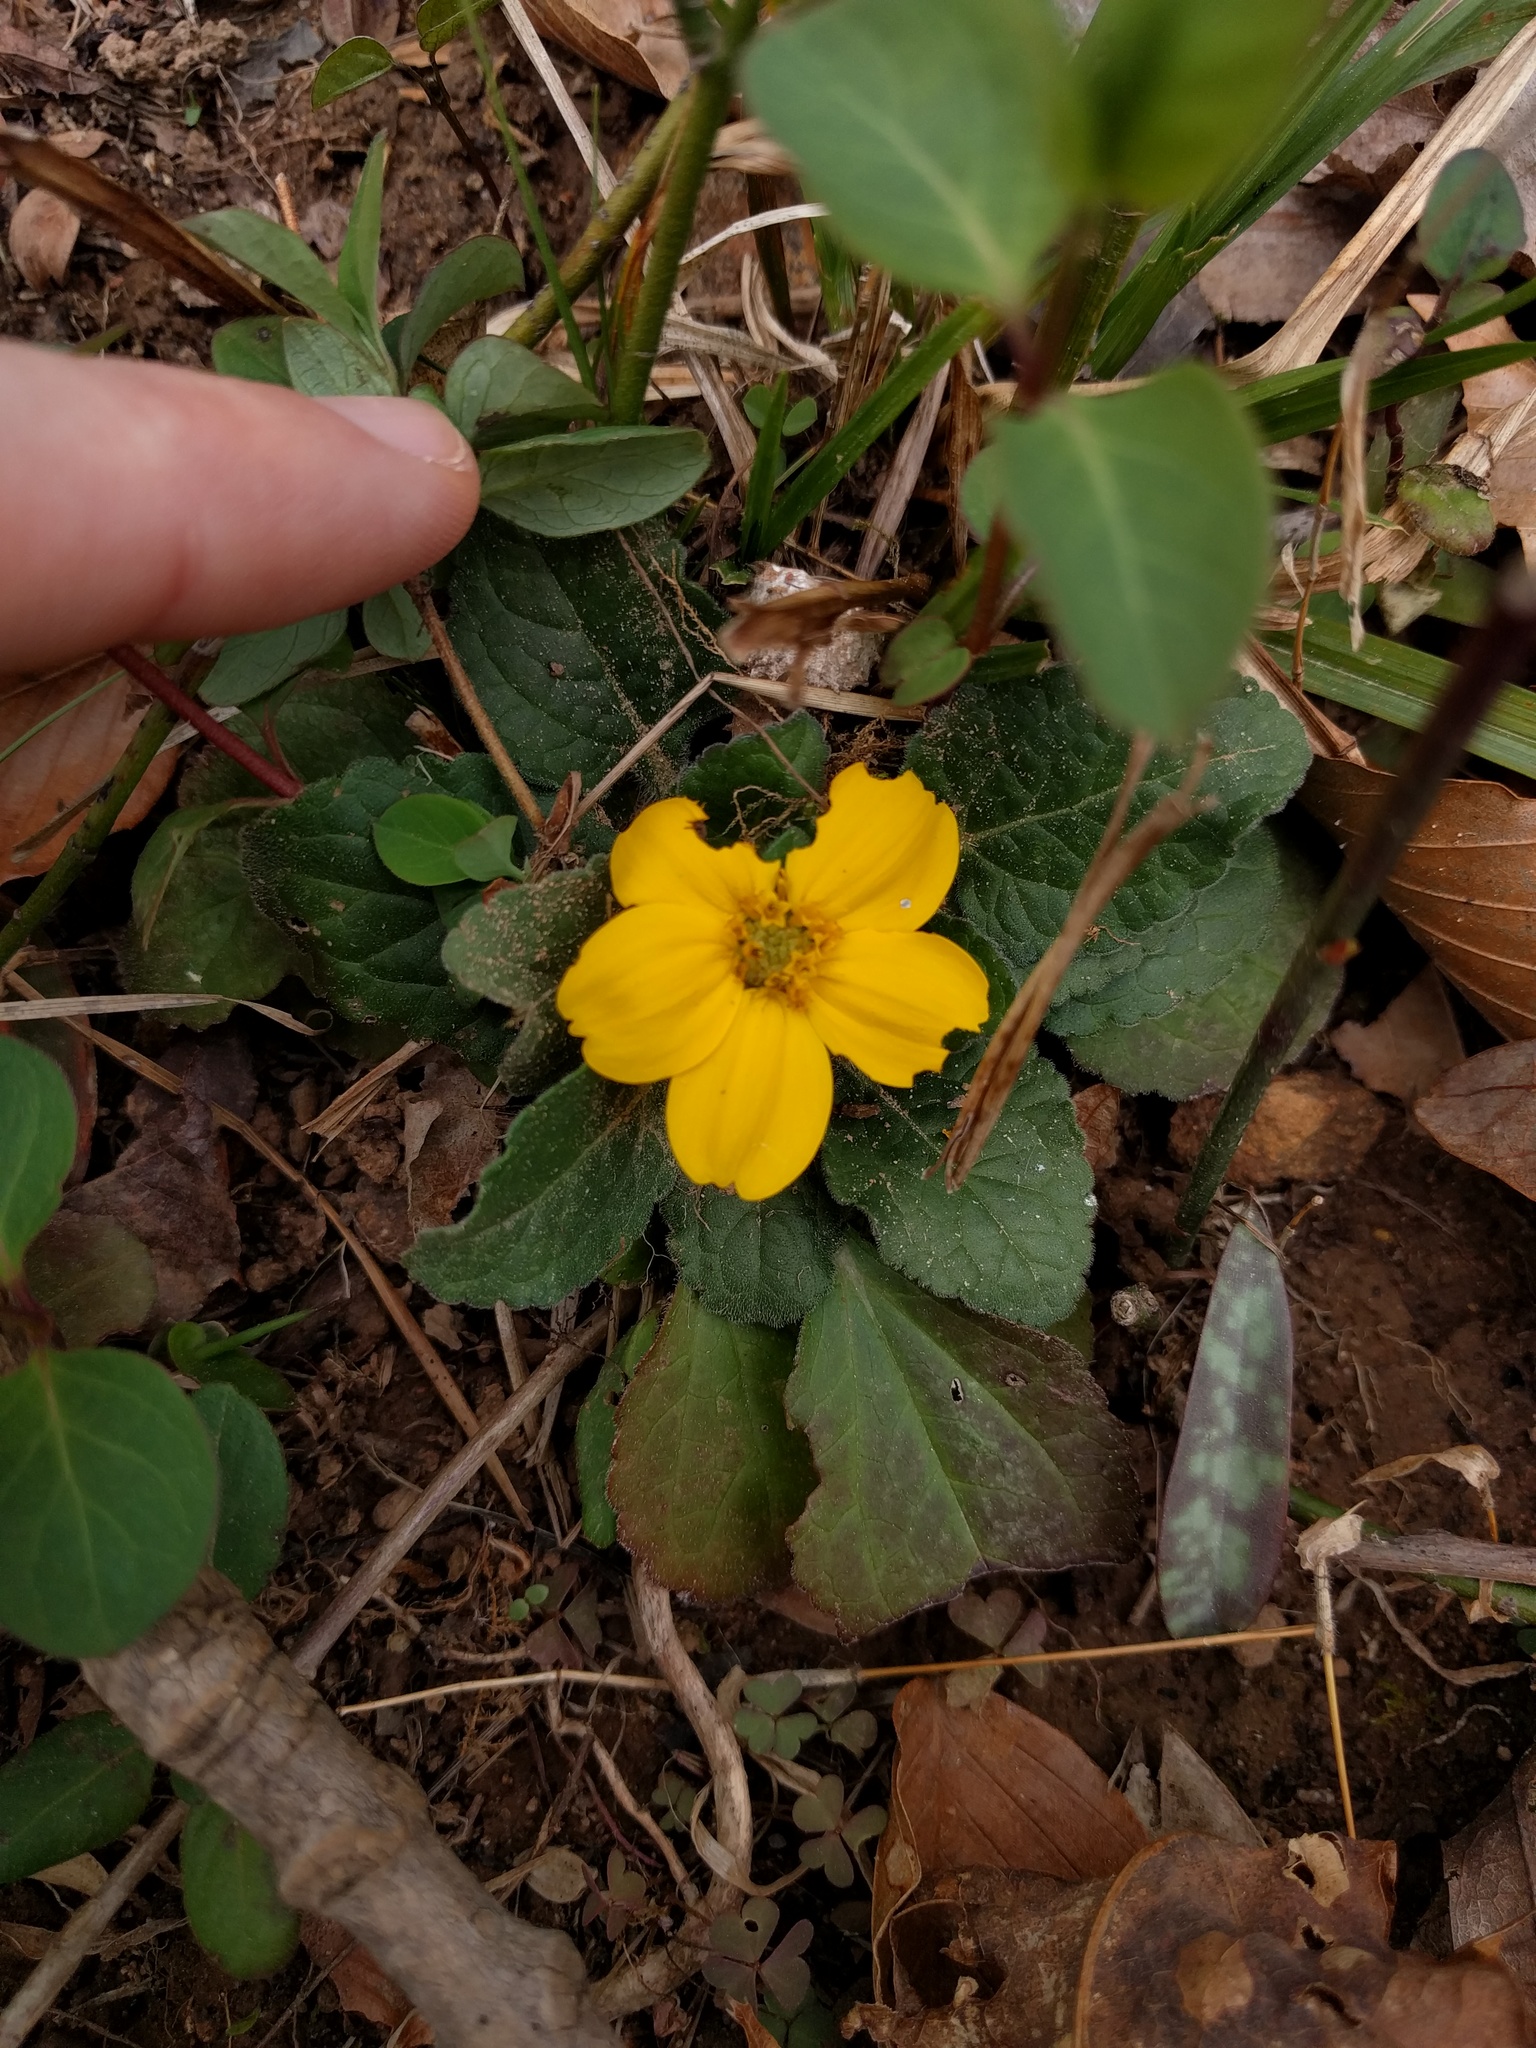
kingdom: Plantae
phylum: Tracheophyta
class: Magnoliopsida
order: Asterales
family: Asteraceae
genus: Chrysogonum
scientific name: Chrysogonum virginianum
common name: Golden-knee
